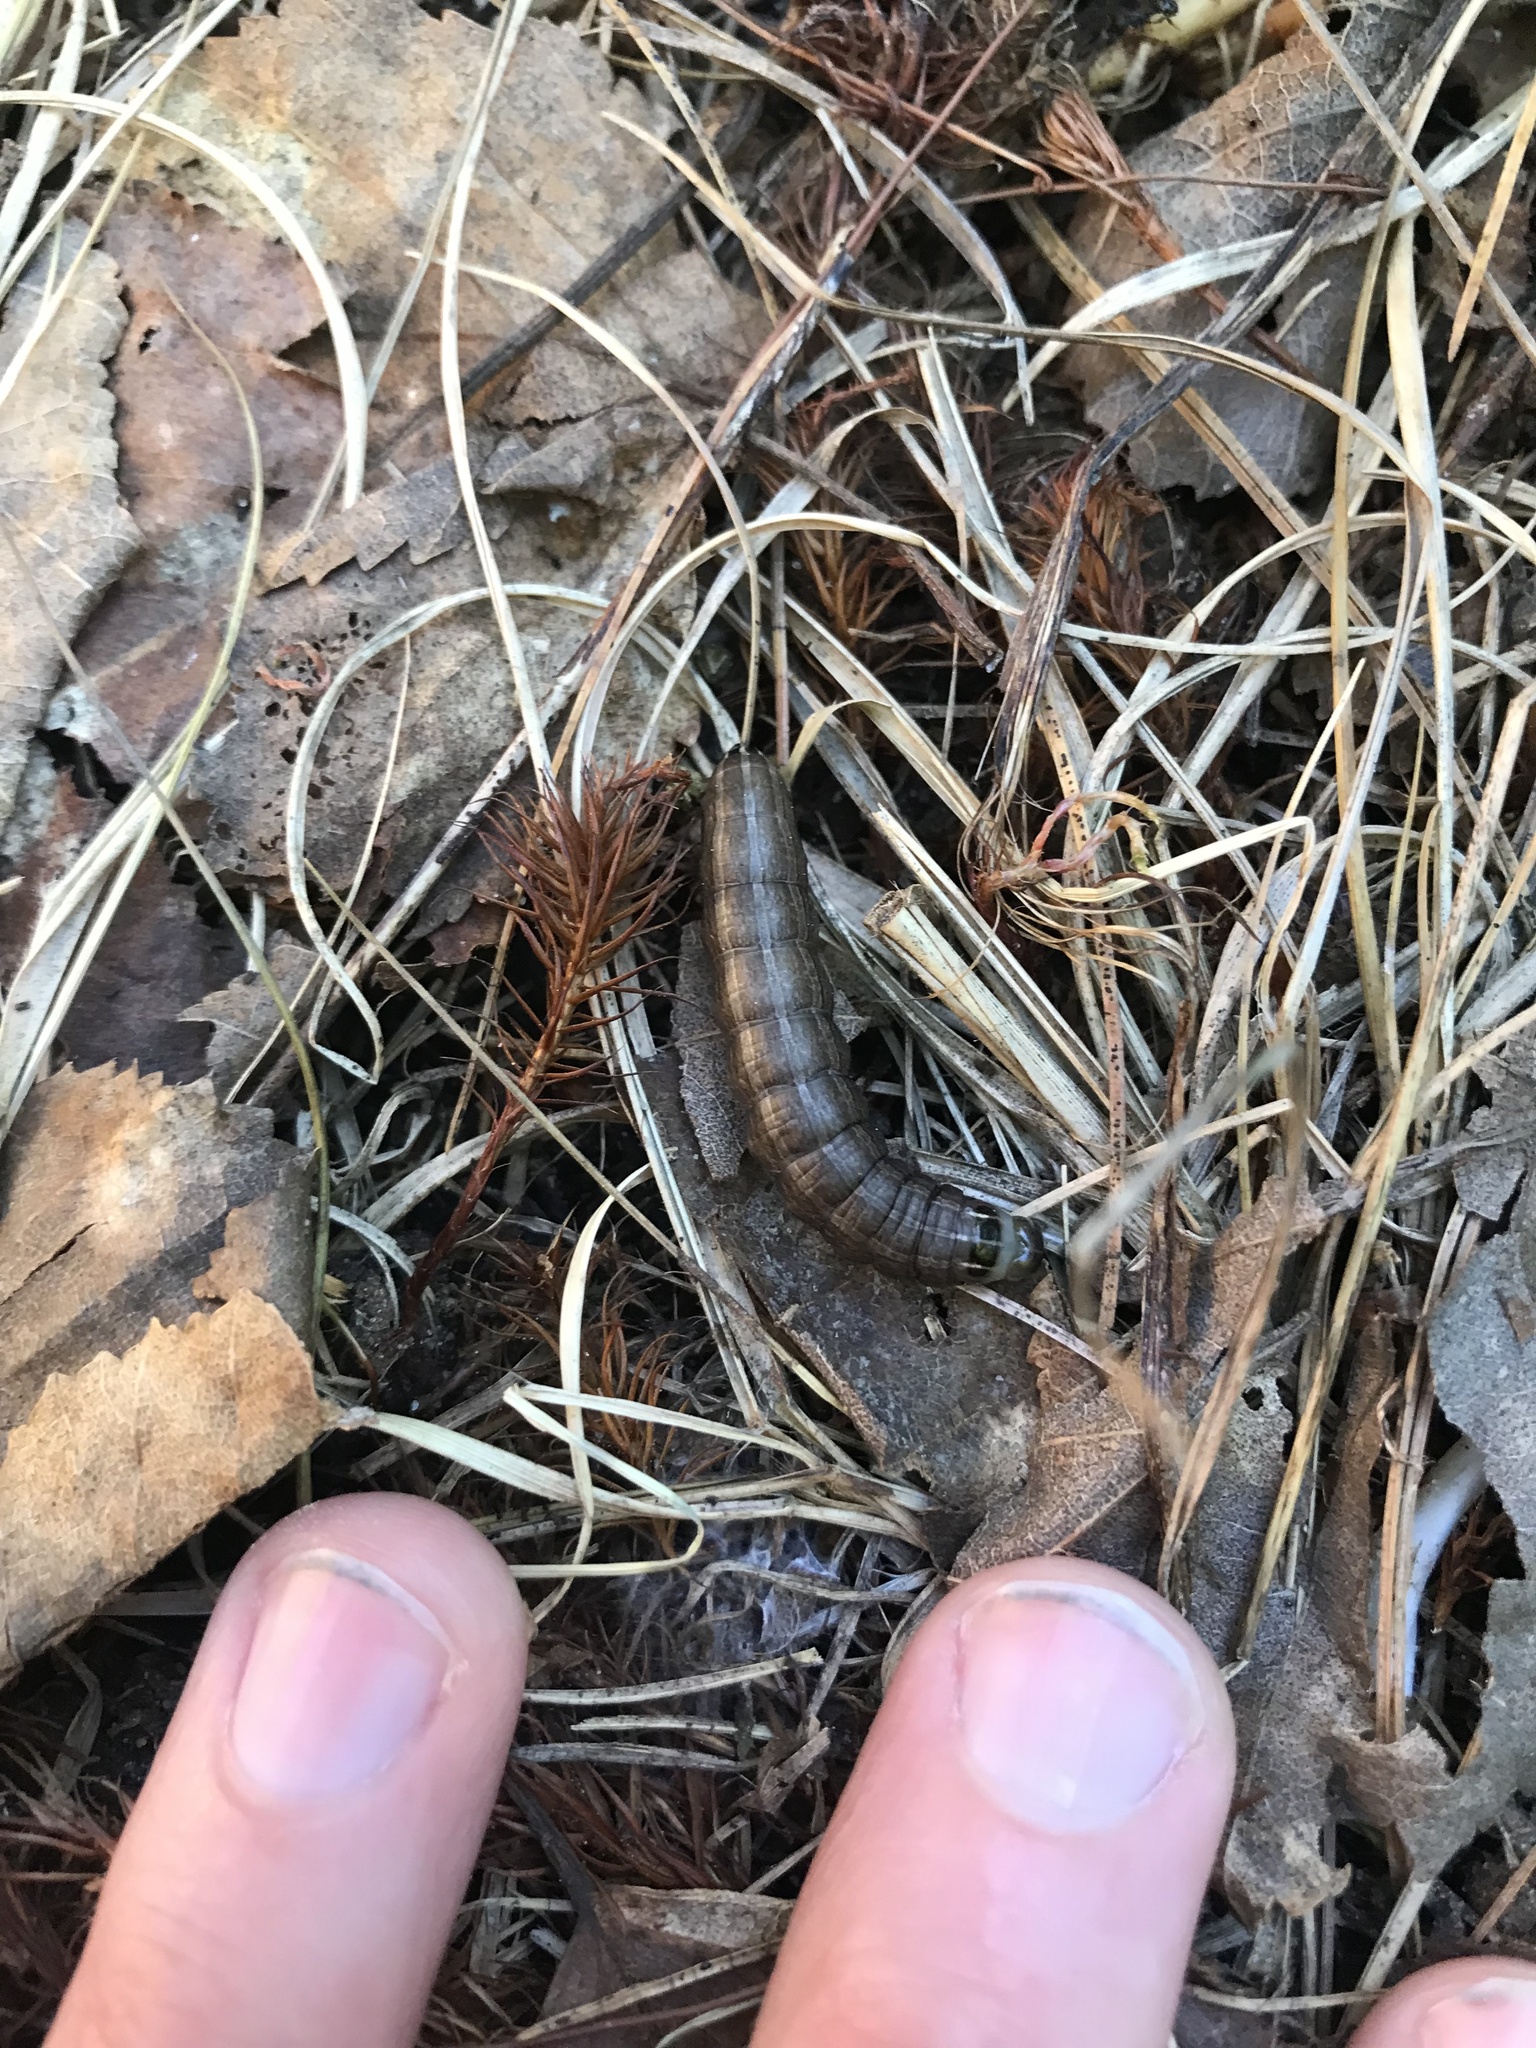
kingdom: Animalia
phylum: Arthropoda
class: Insecta
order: Lepidoptera
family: Noctuidae
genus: Nephelodes
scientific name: Nephelodes minians
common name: Bronzed cutworm
